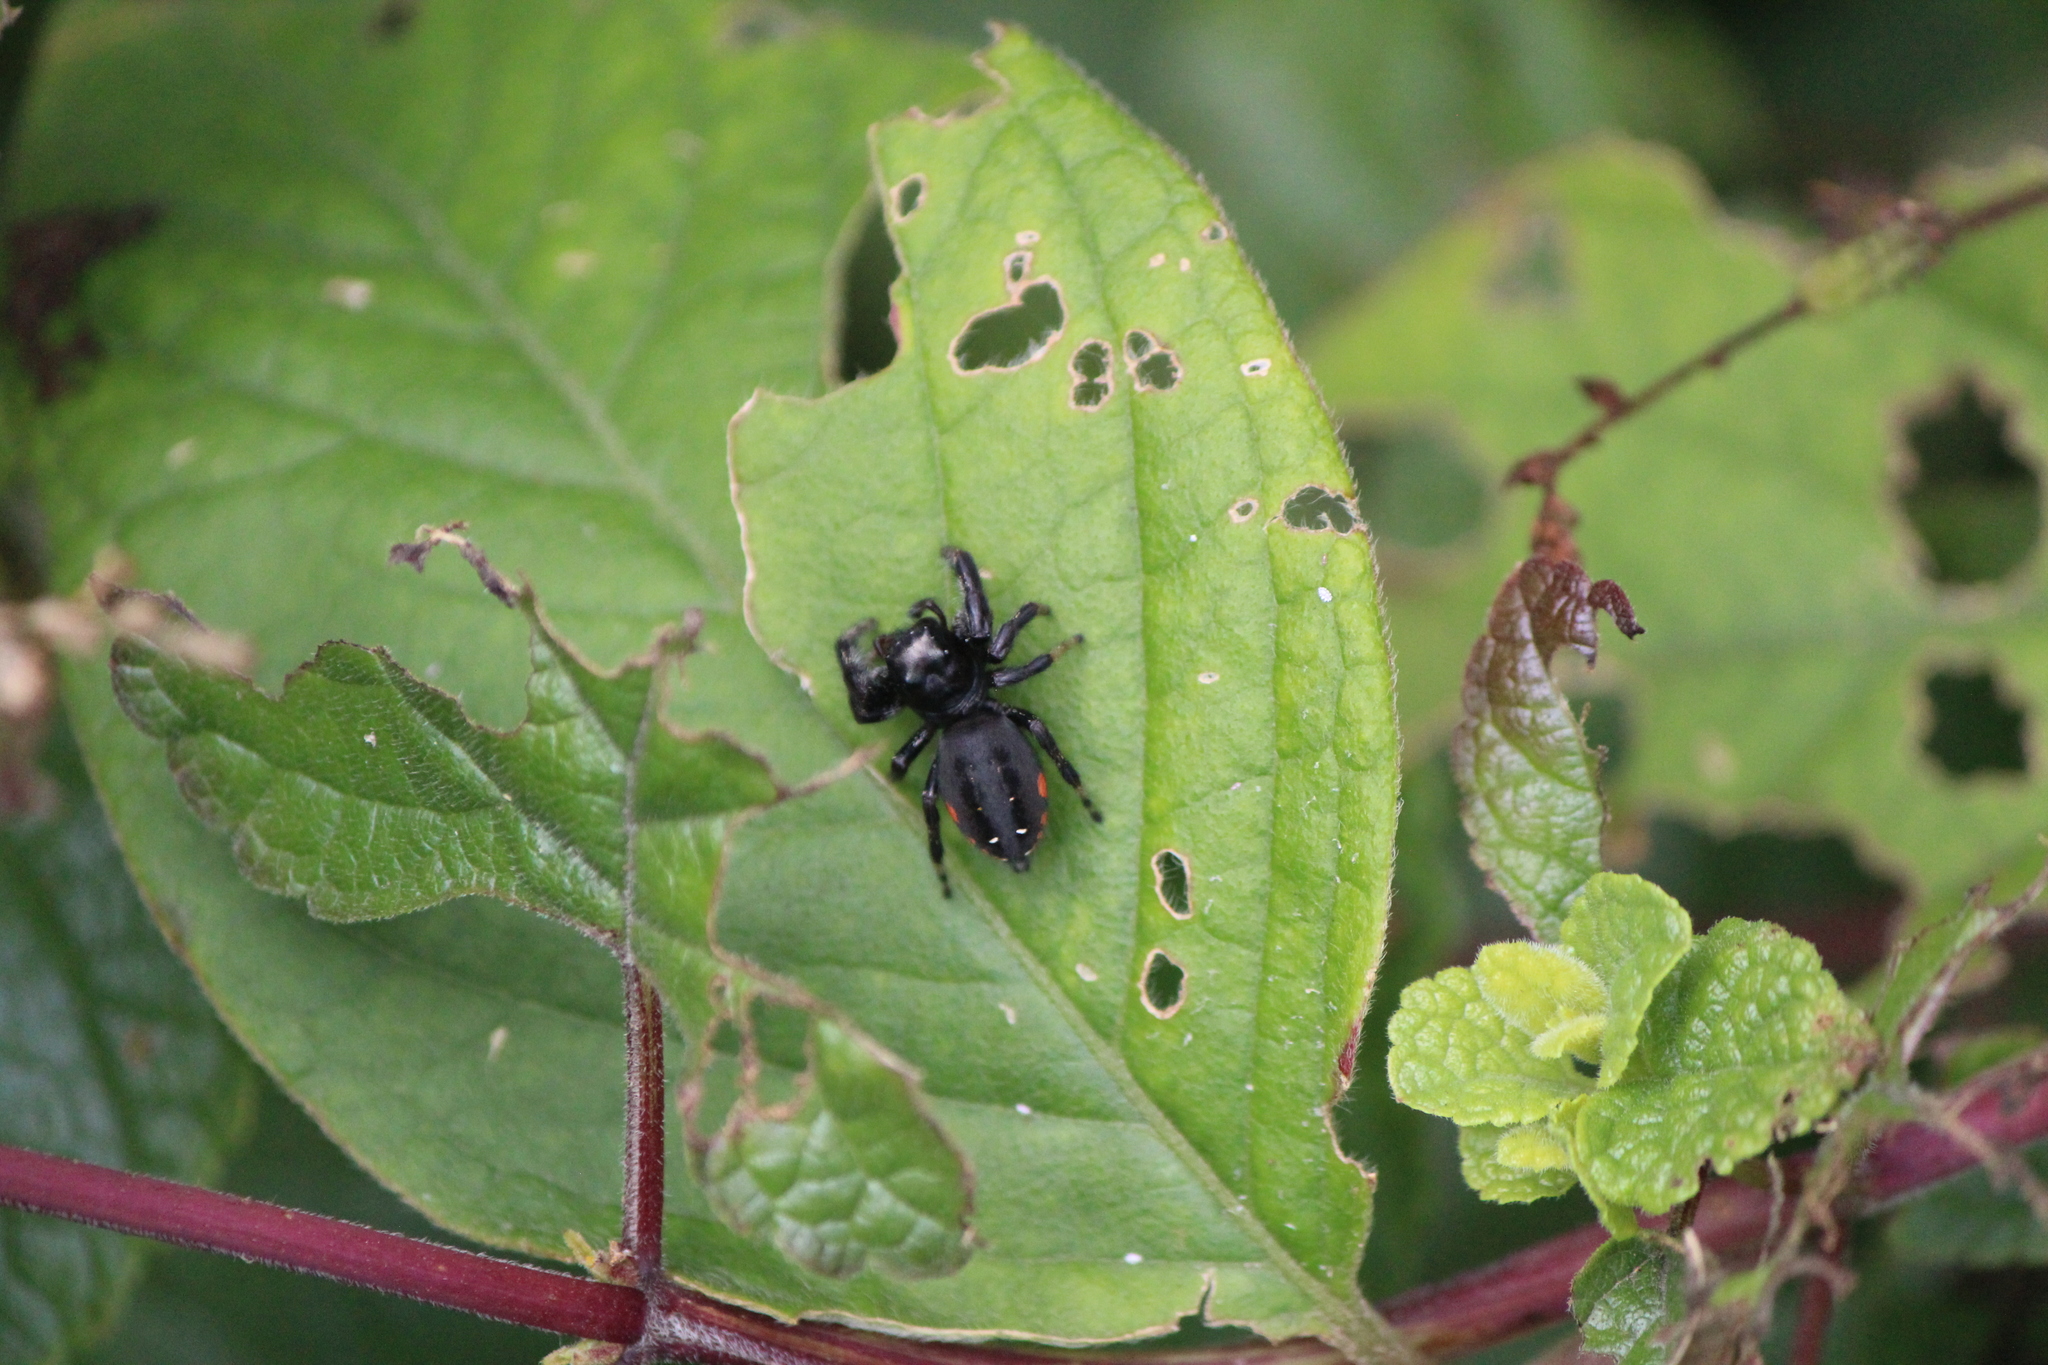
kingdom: Animalia
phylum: Arthropoda
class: Arachnida
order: Araneae
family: Salticidae
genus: Paraphidippus
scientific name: Paraphidippus aurantius
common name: Jumping spiders
